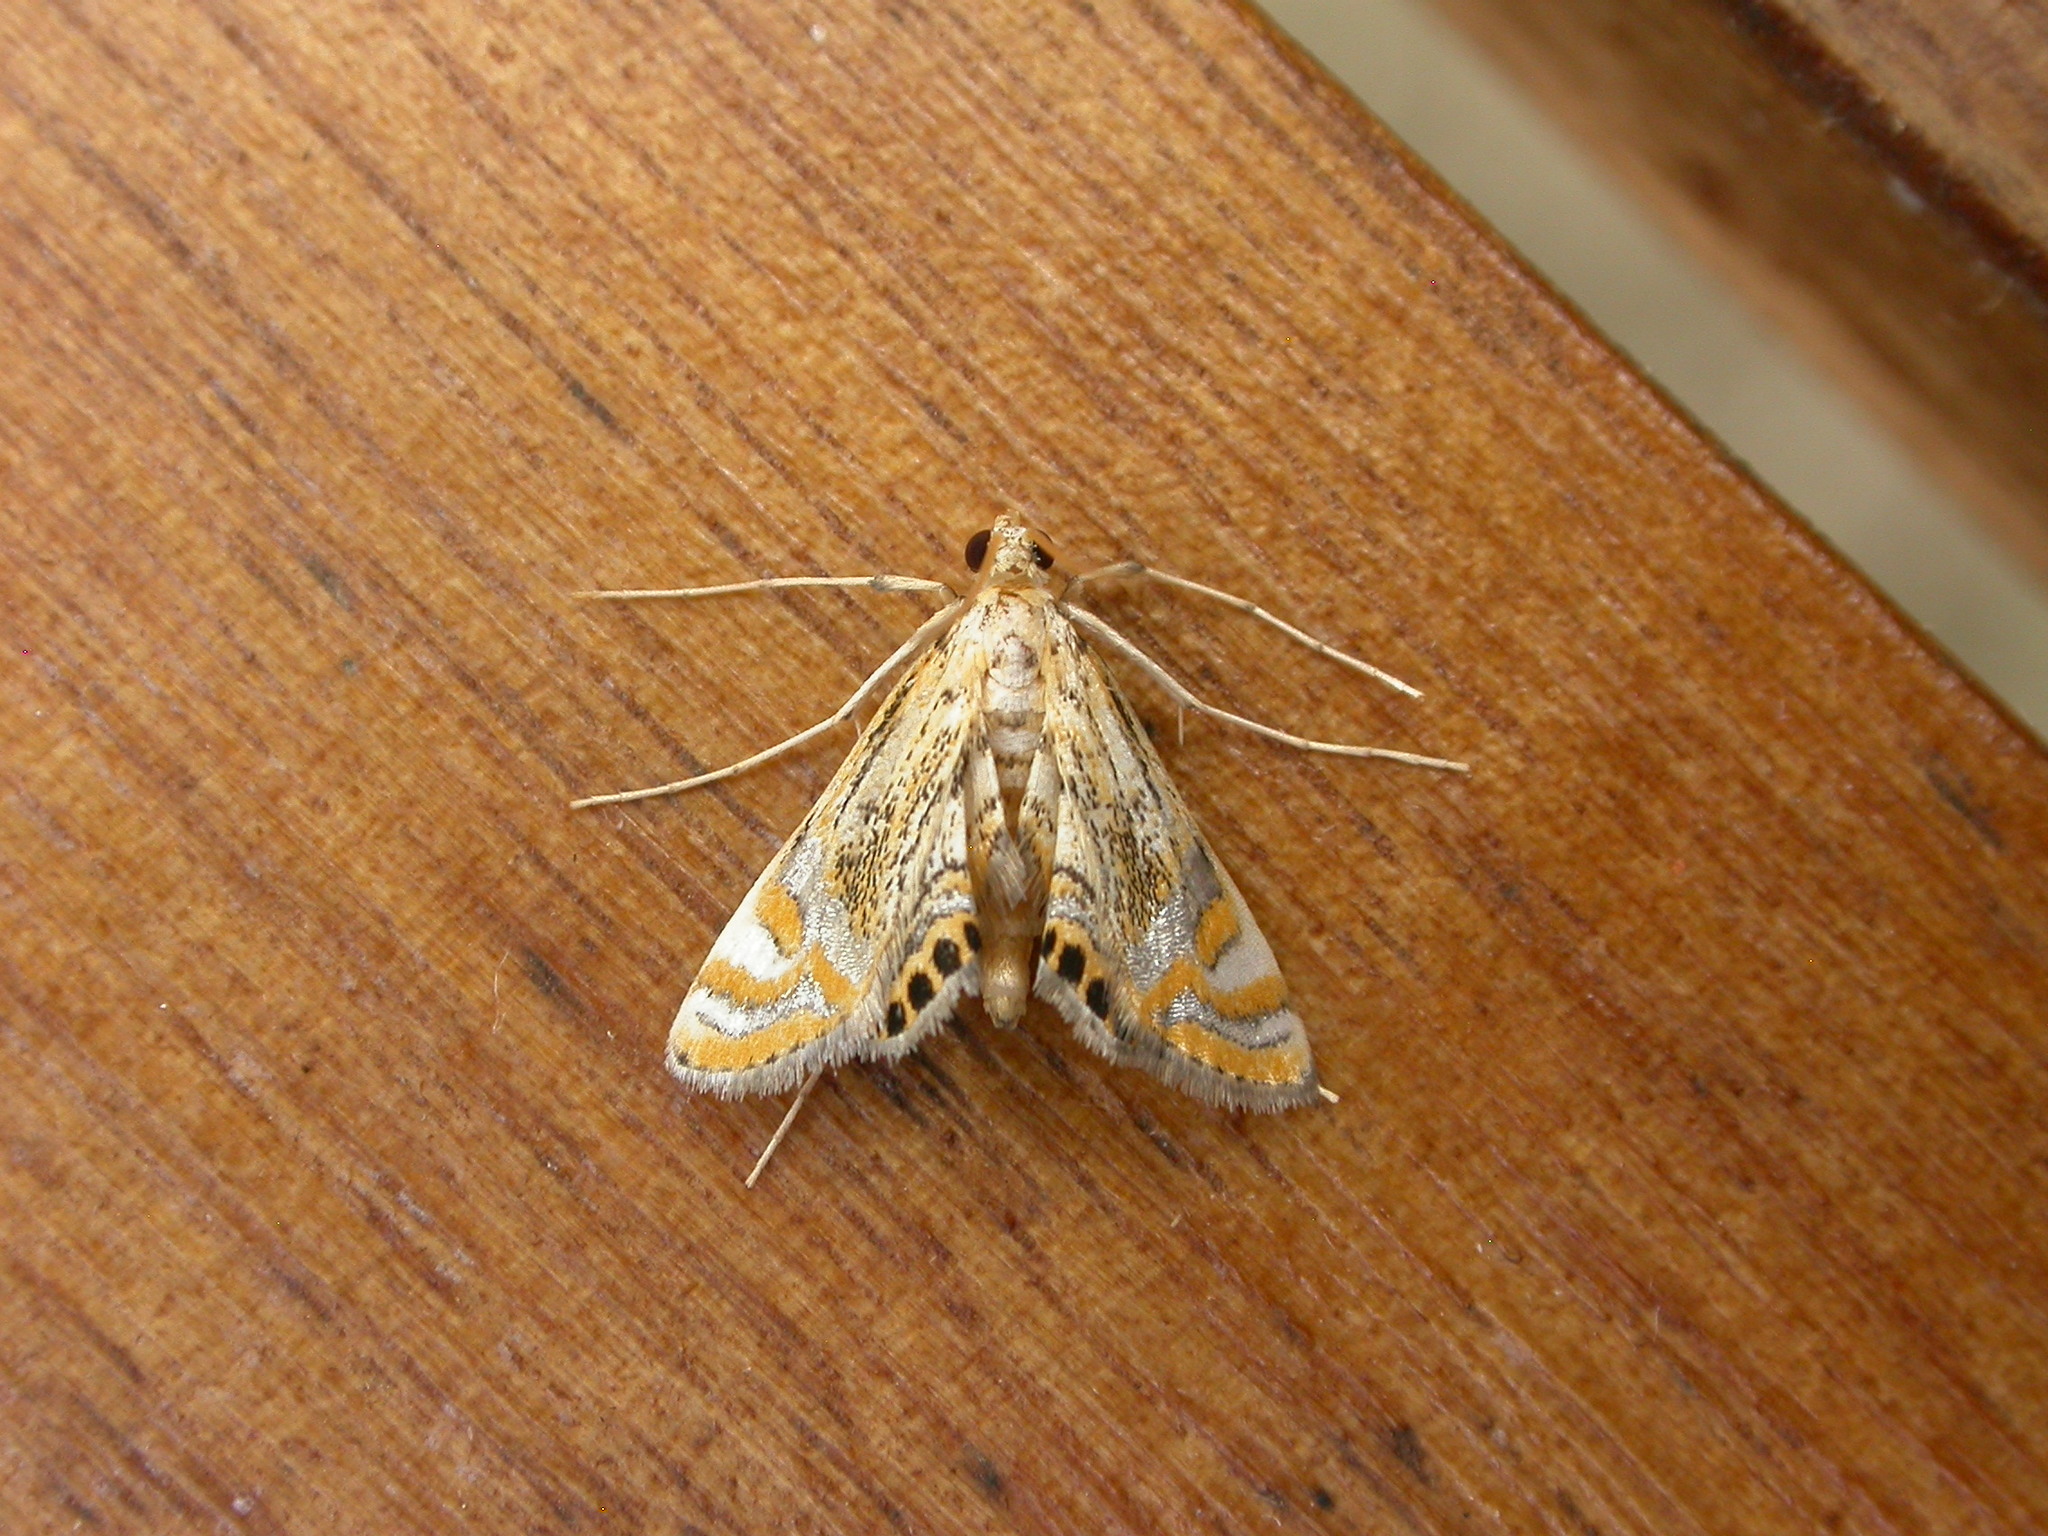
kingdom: Animalia
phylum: Arthropoda
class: Insecta
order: Lepidoptera
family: Crambidae
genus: Cataclysta
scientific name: Cataclysta lampetialis
